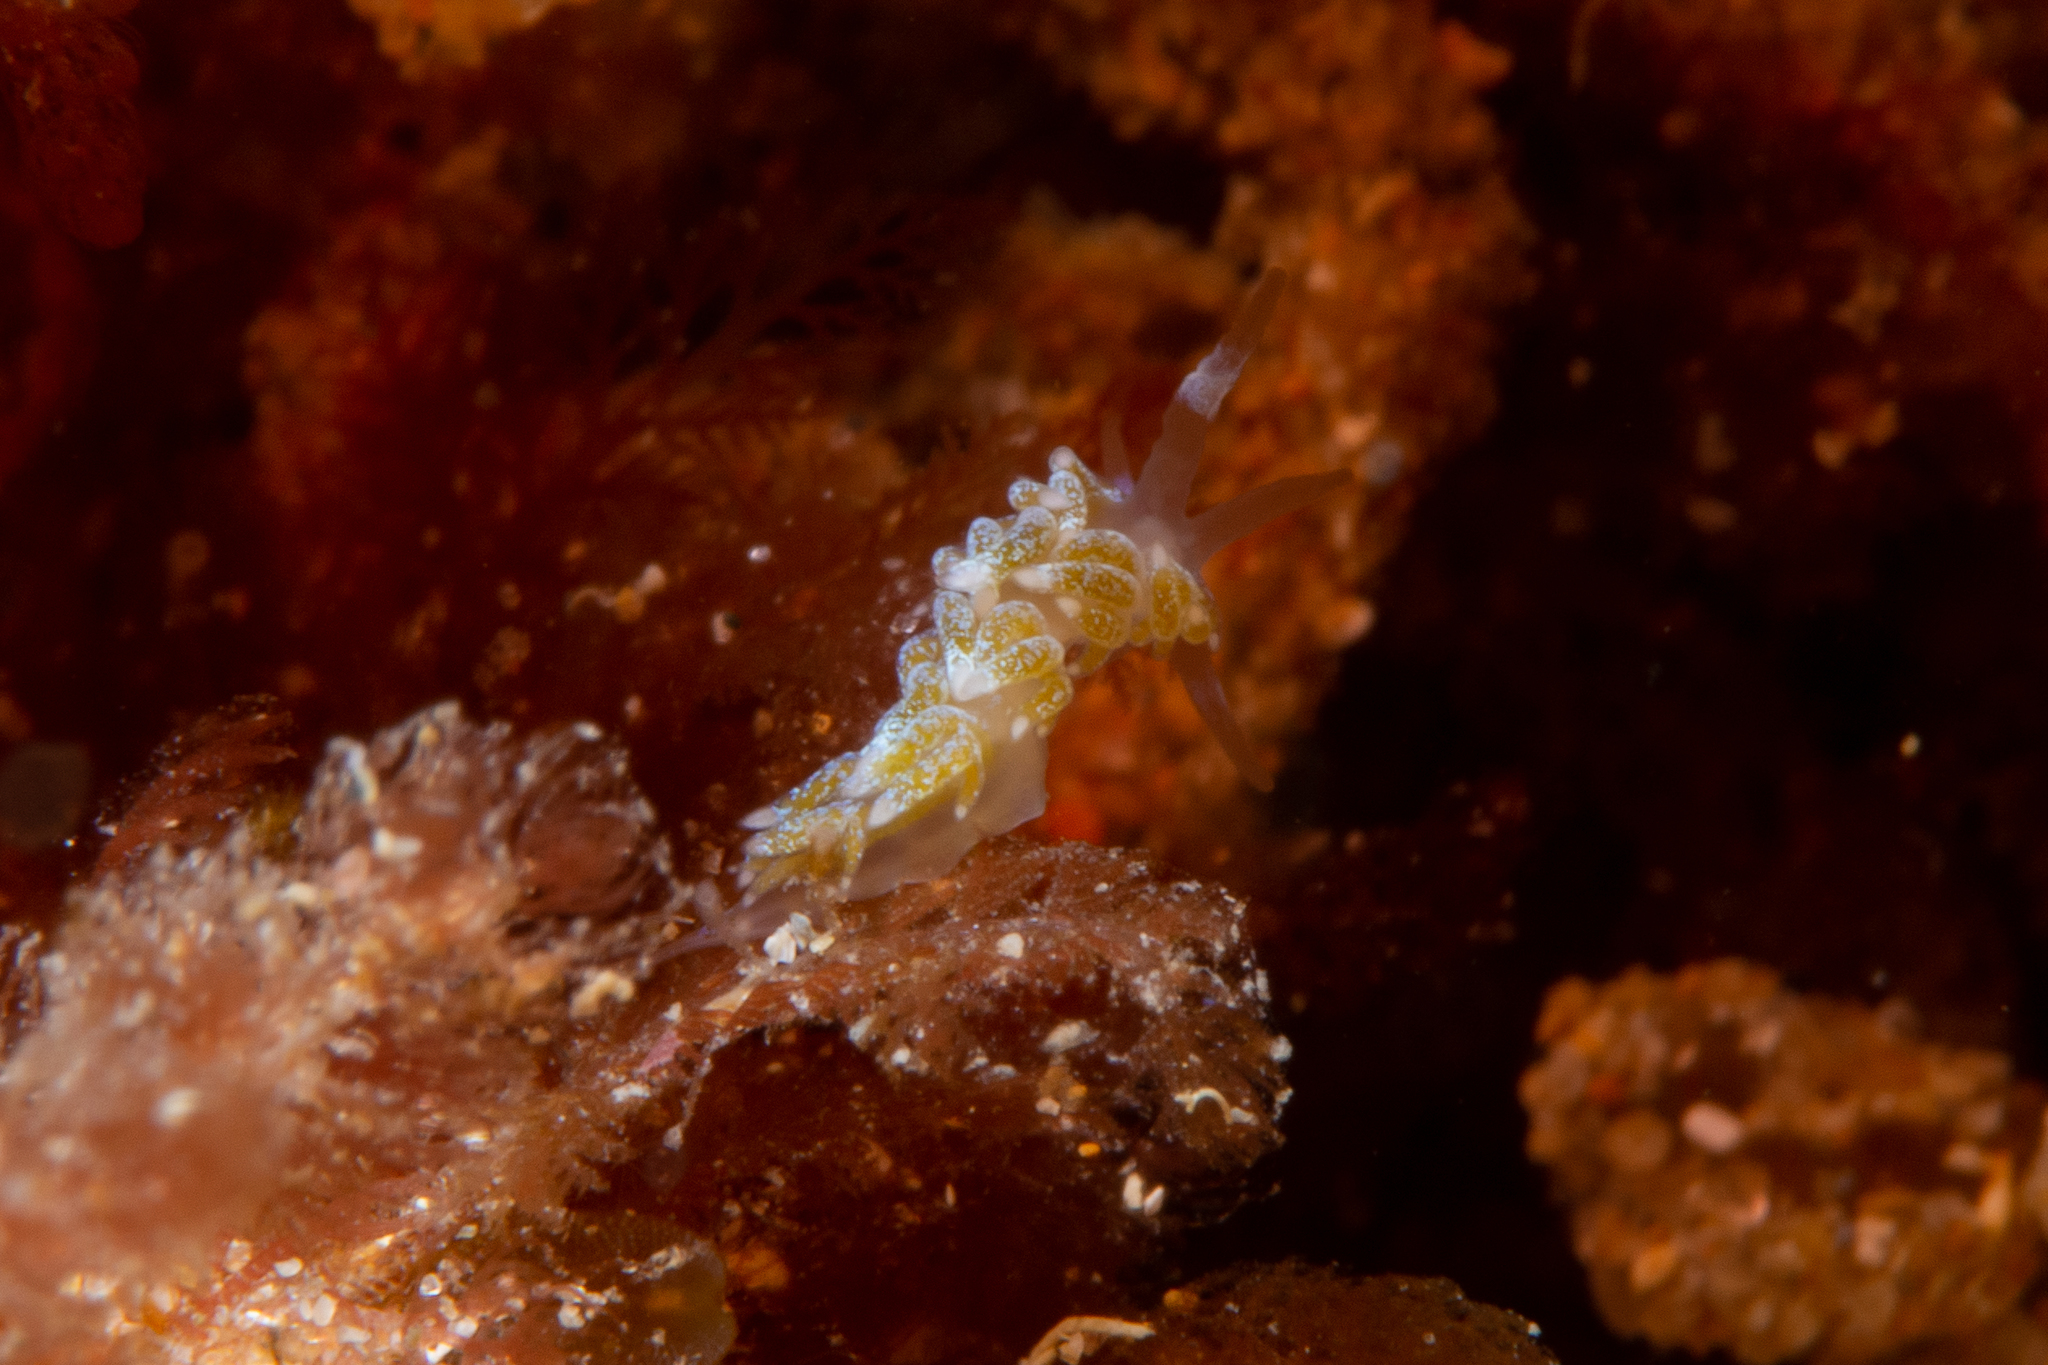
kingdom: Animalia
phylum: Mollusca
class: Gastropoda
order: Nudibranchia
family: Apataidae
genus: Tularia
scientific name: Tularia bractea
